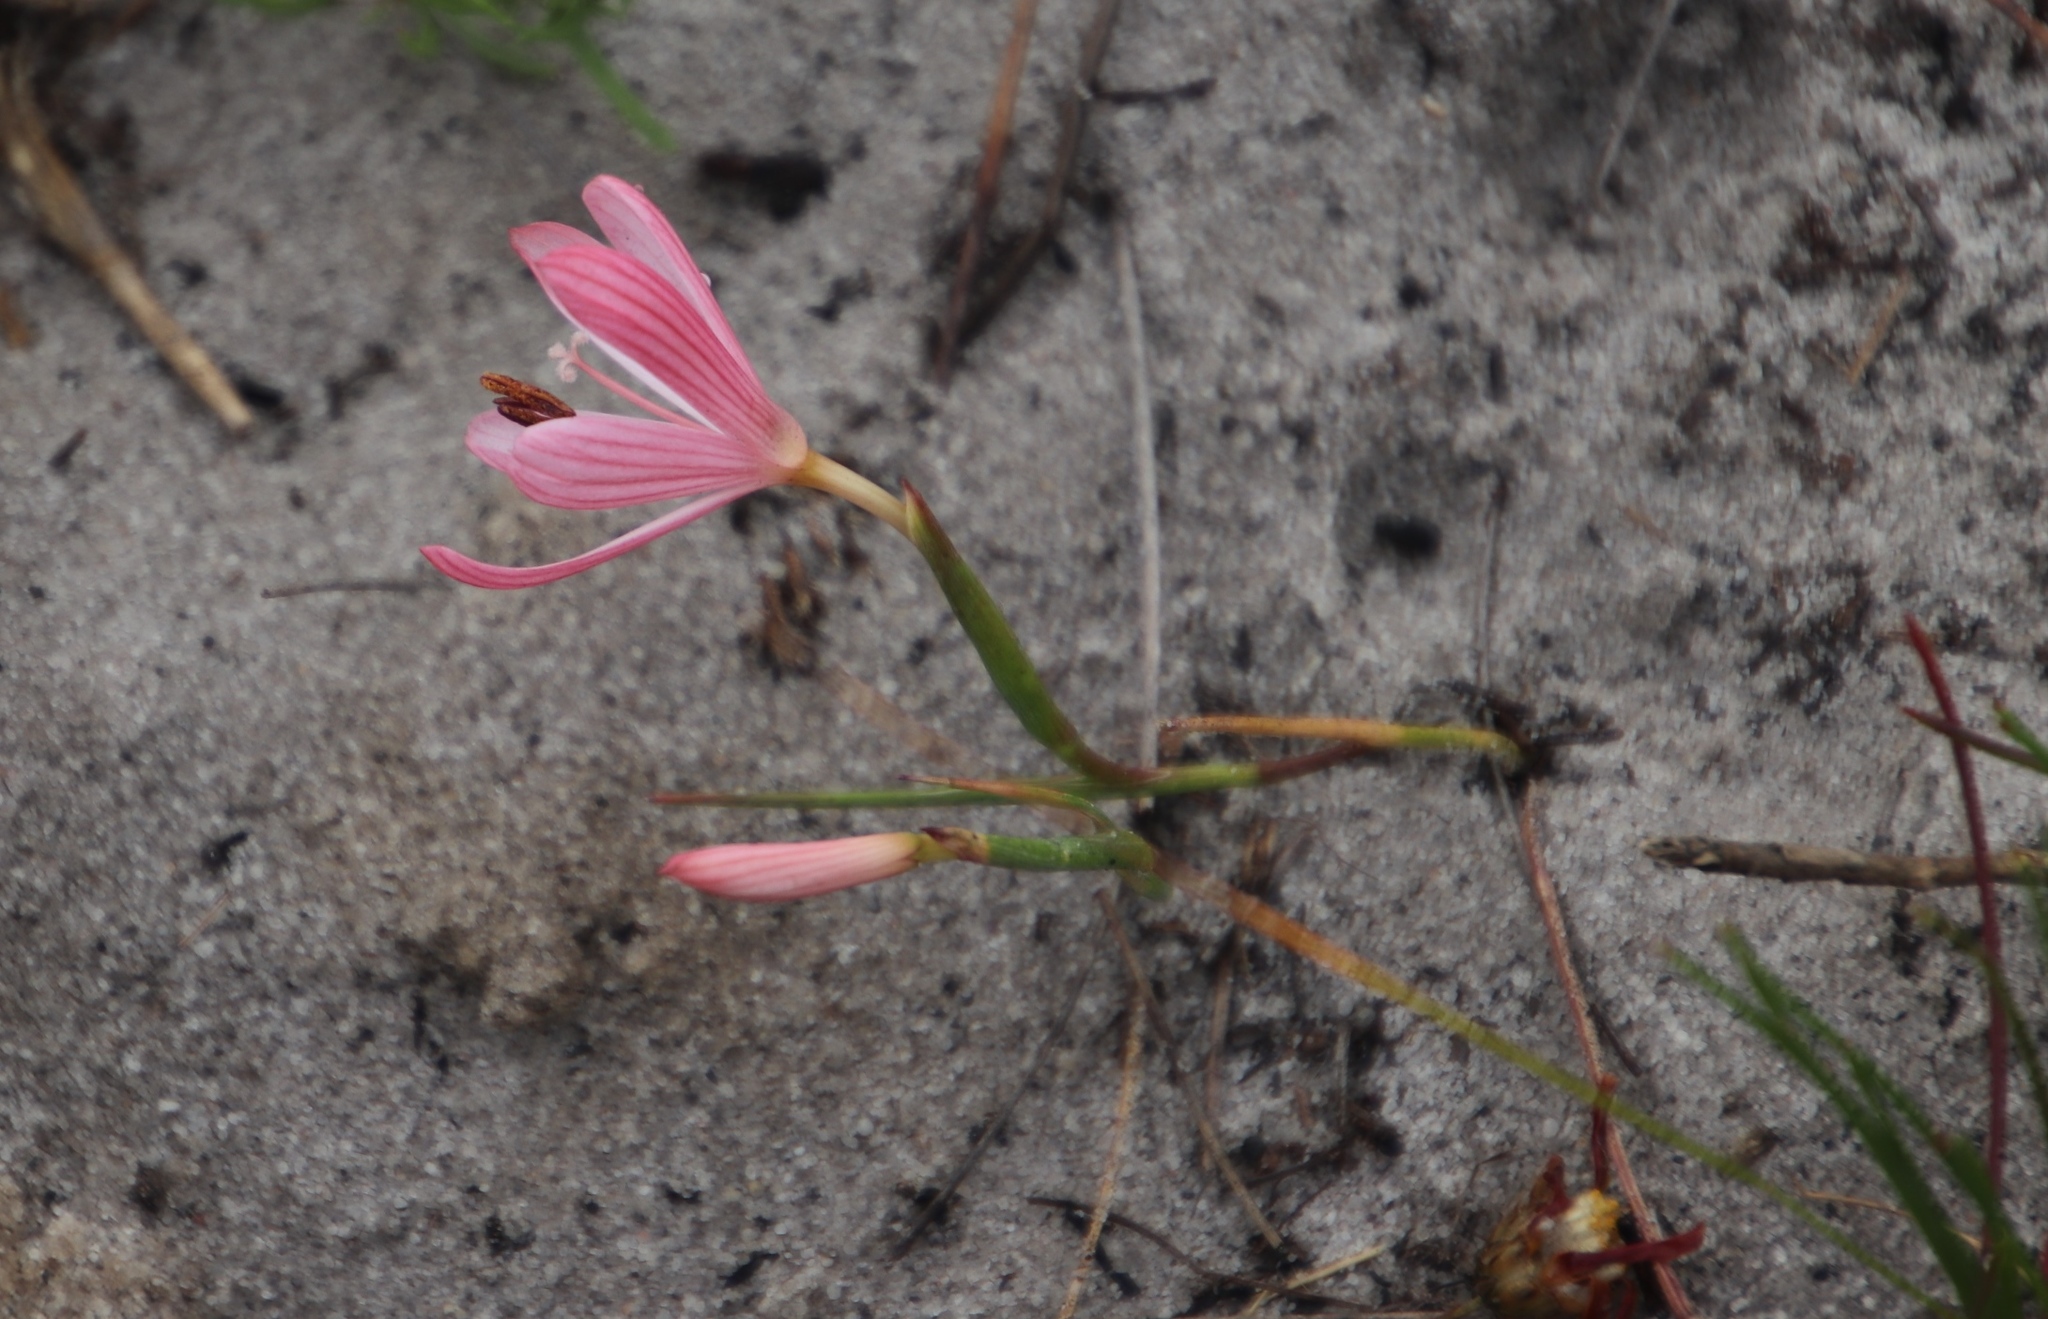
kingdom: Plantae
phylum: Tracheophyta
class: Liliopsida
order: Asparagales
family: Iridaceae
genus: Geissorhiza
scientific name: Geissorhiza bonae-spei
